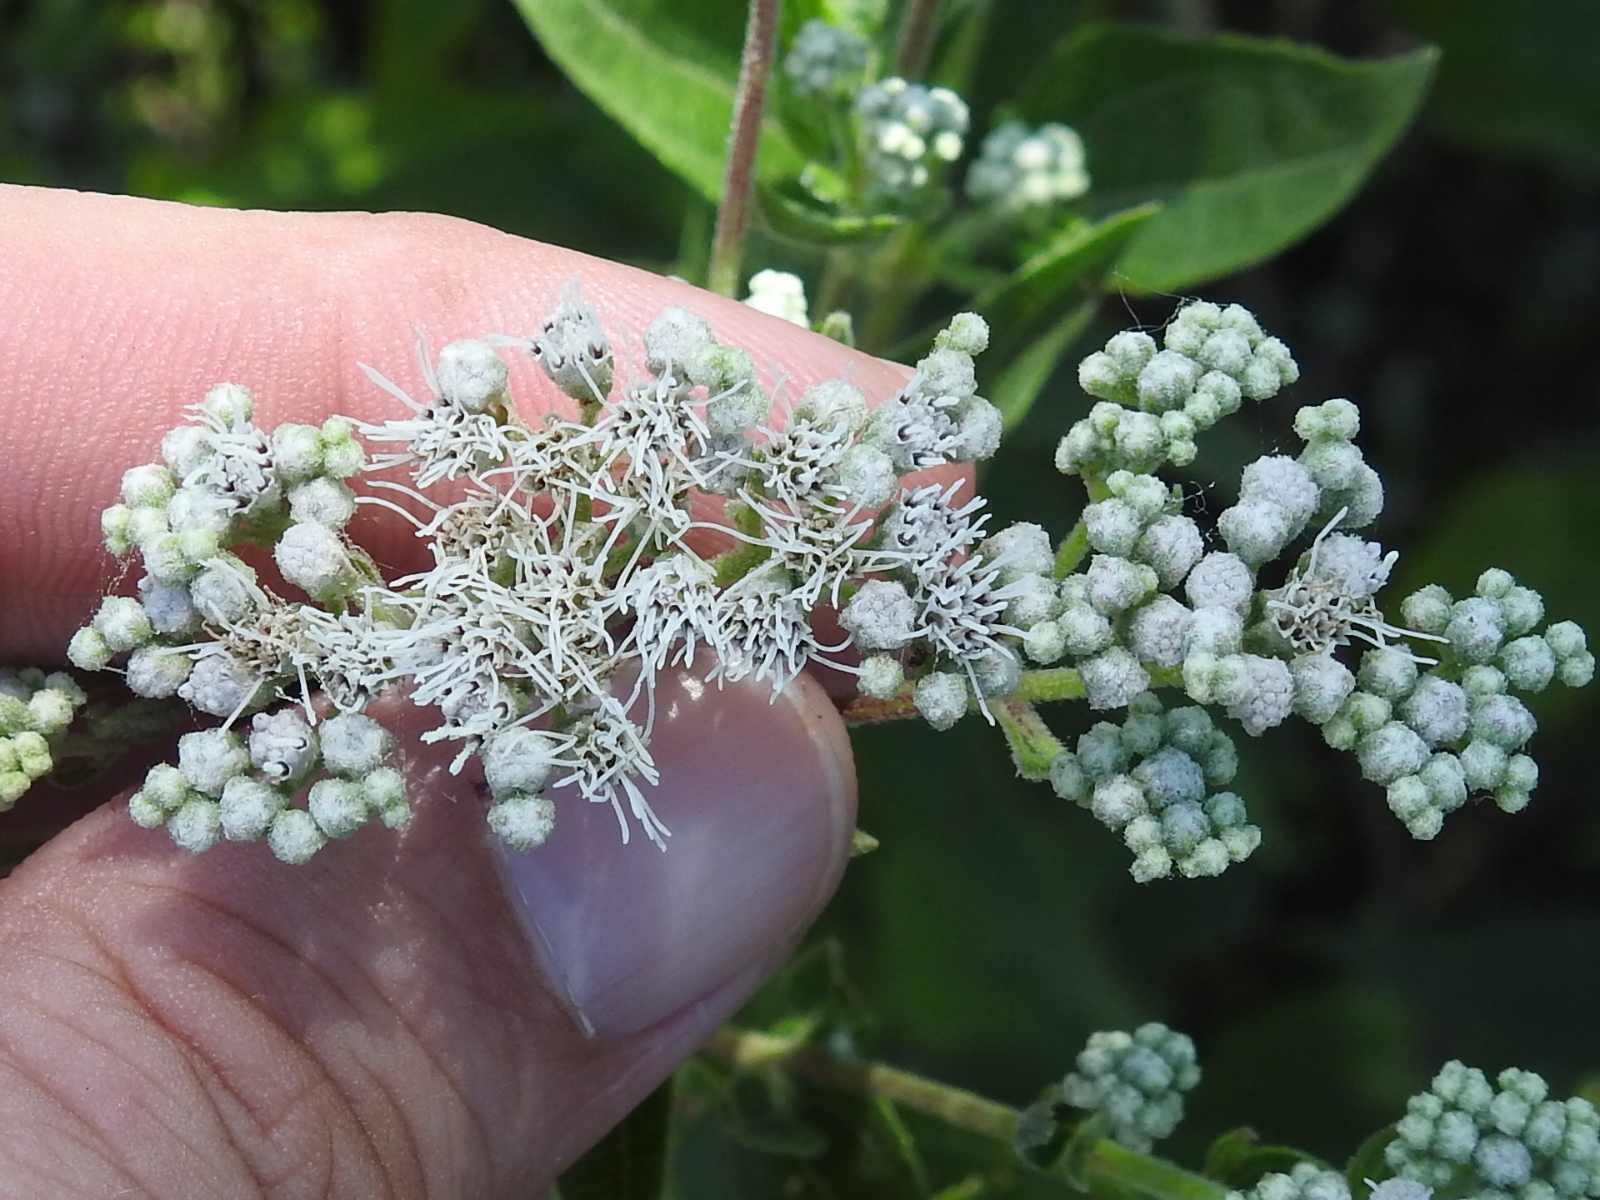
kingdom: Plantae
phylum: Tracheophyta
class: Magnoliopsida
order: Asterales
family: Asteraceae
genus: Eupatorium
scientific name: Eupatorium serotinum
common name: Late boneset
